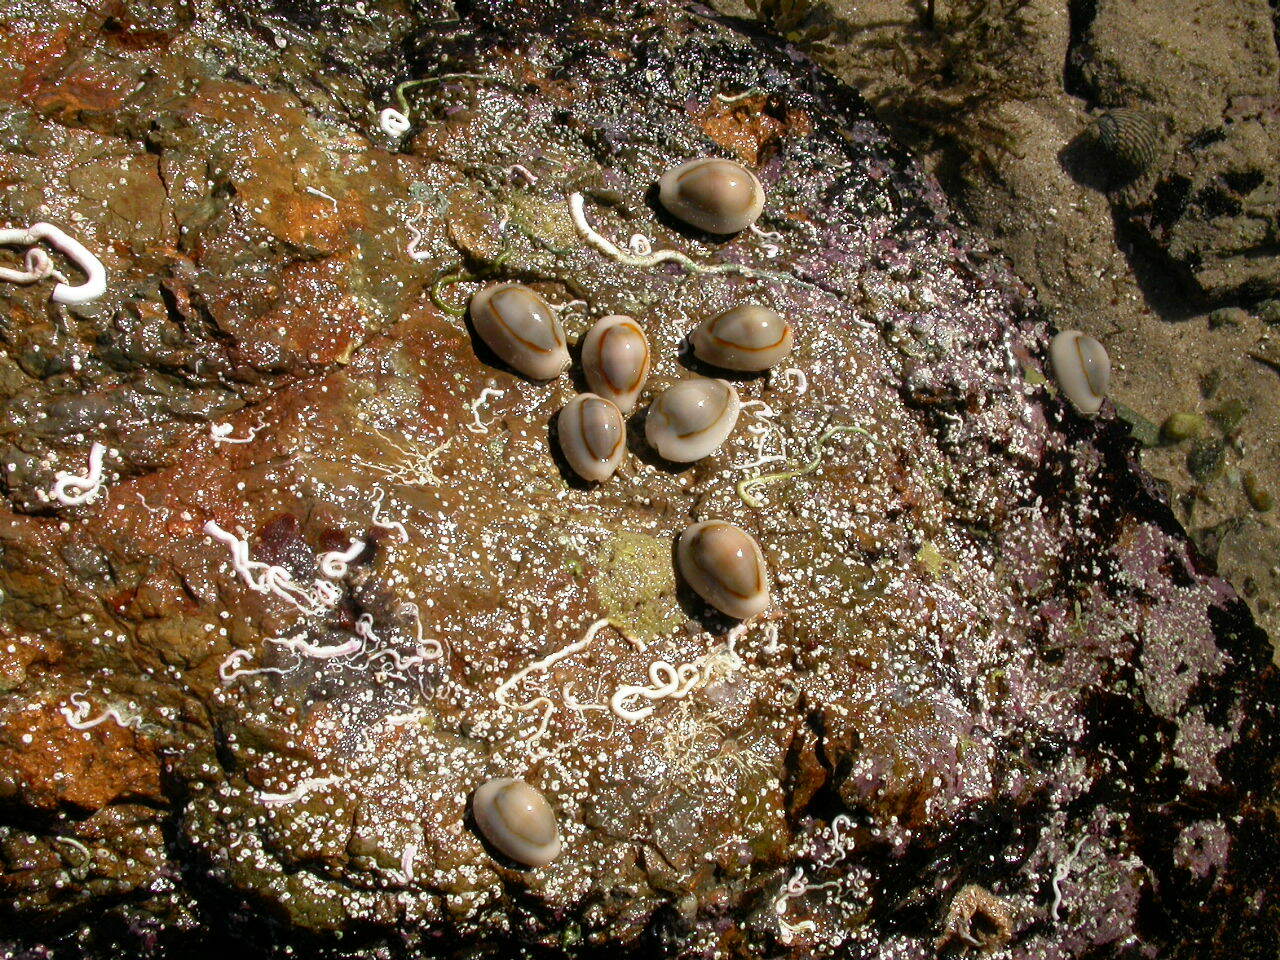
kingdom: Animalia
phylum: Mollusca
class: Gastropoda
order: Littorinimorpha
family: Cypraeidae
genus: Monetaria
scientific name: Monetaria annulus
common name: Ring cowrie
